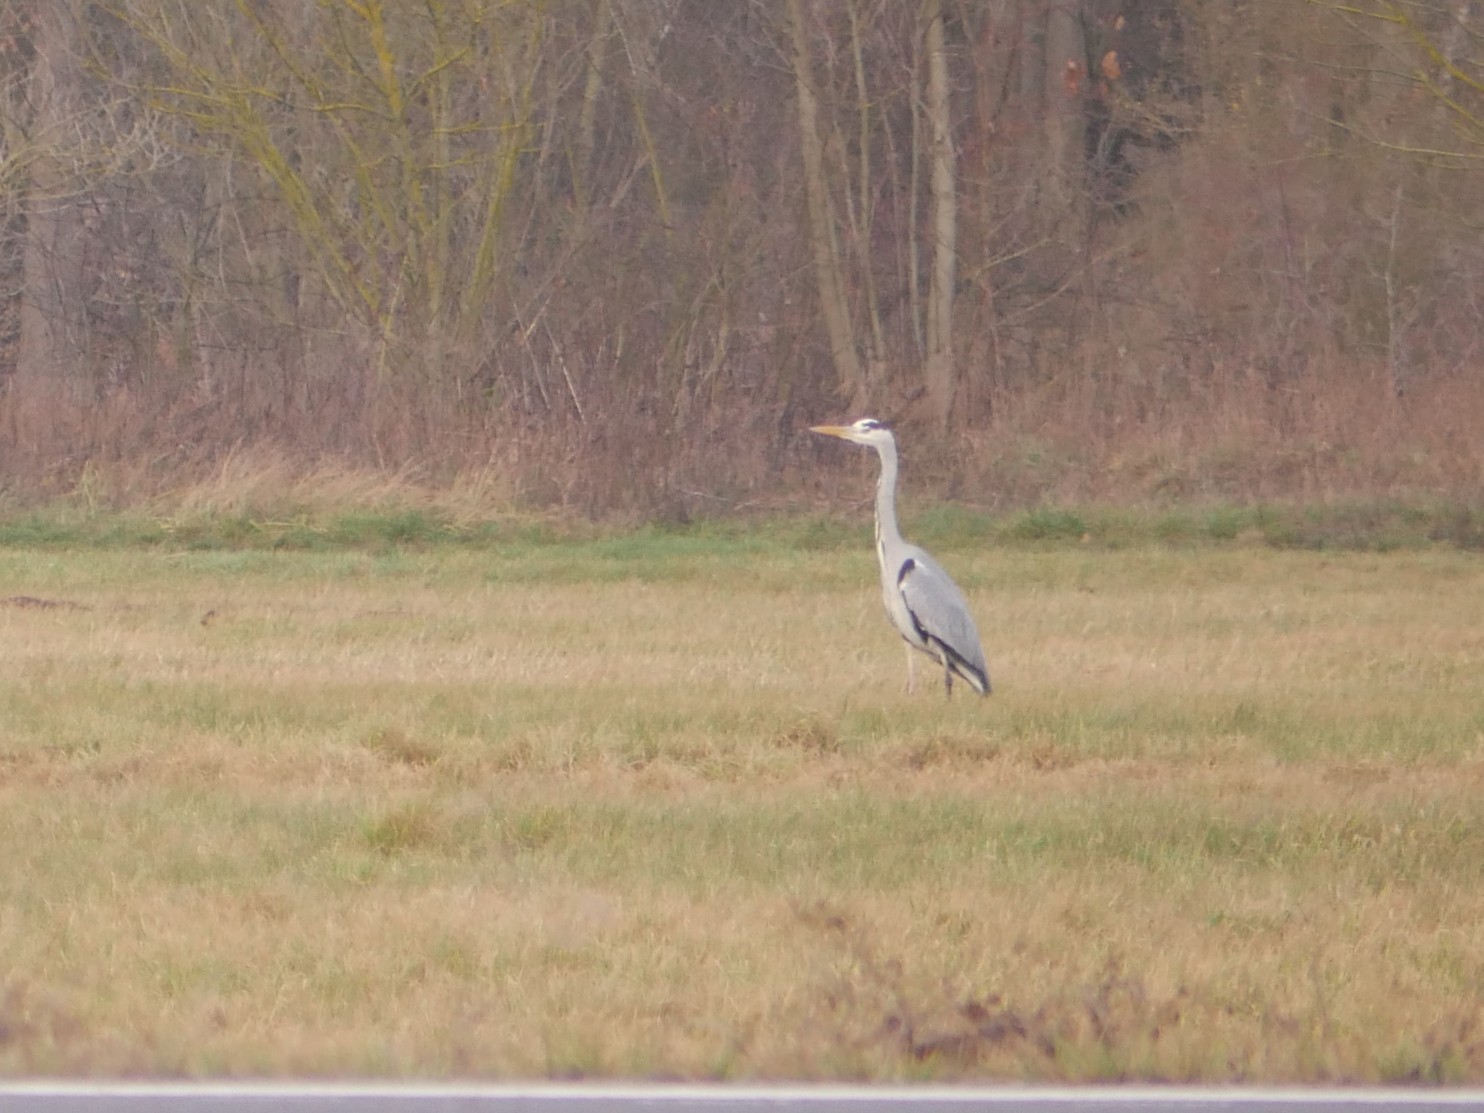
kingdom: Animalia
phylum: Chordata
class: Aves
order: Pelecaniformes
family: Ardeidae
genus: Ardea
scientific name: Ardea cinerea
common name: Grey heron
